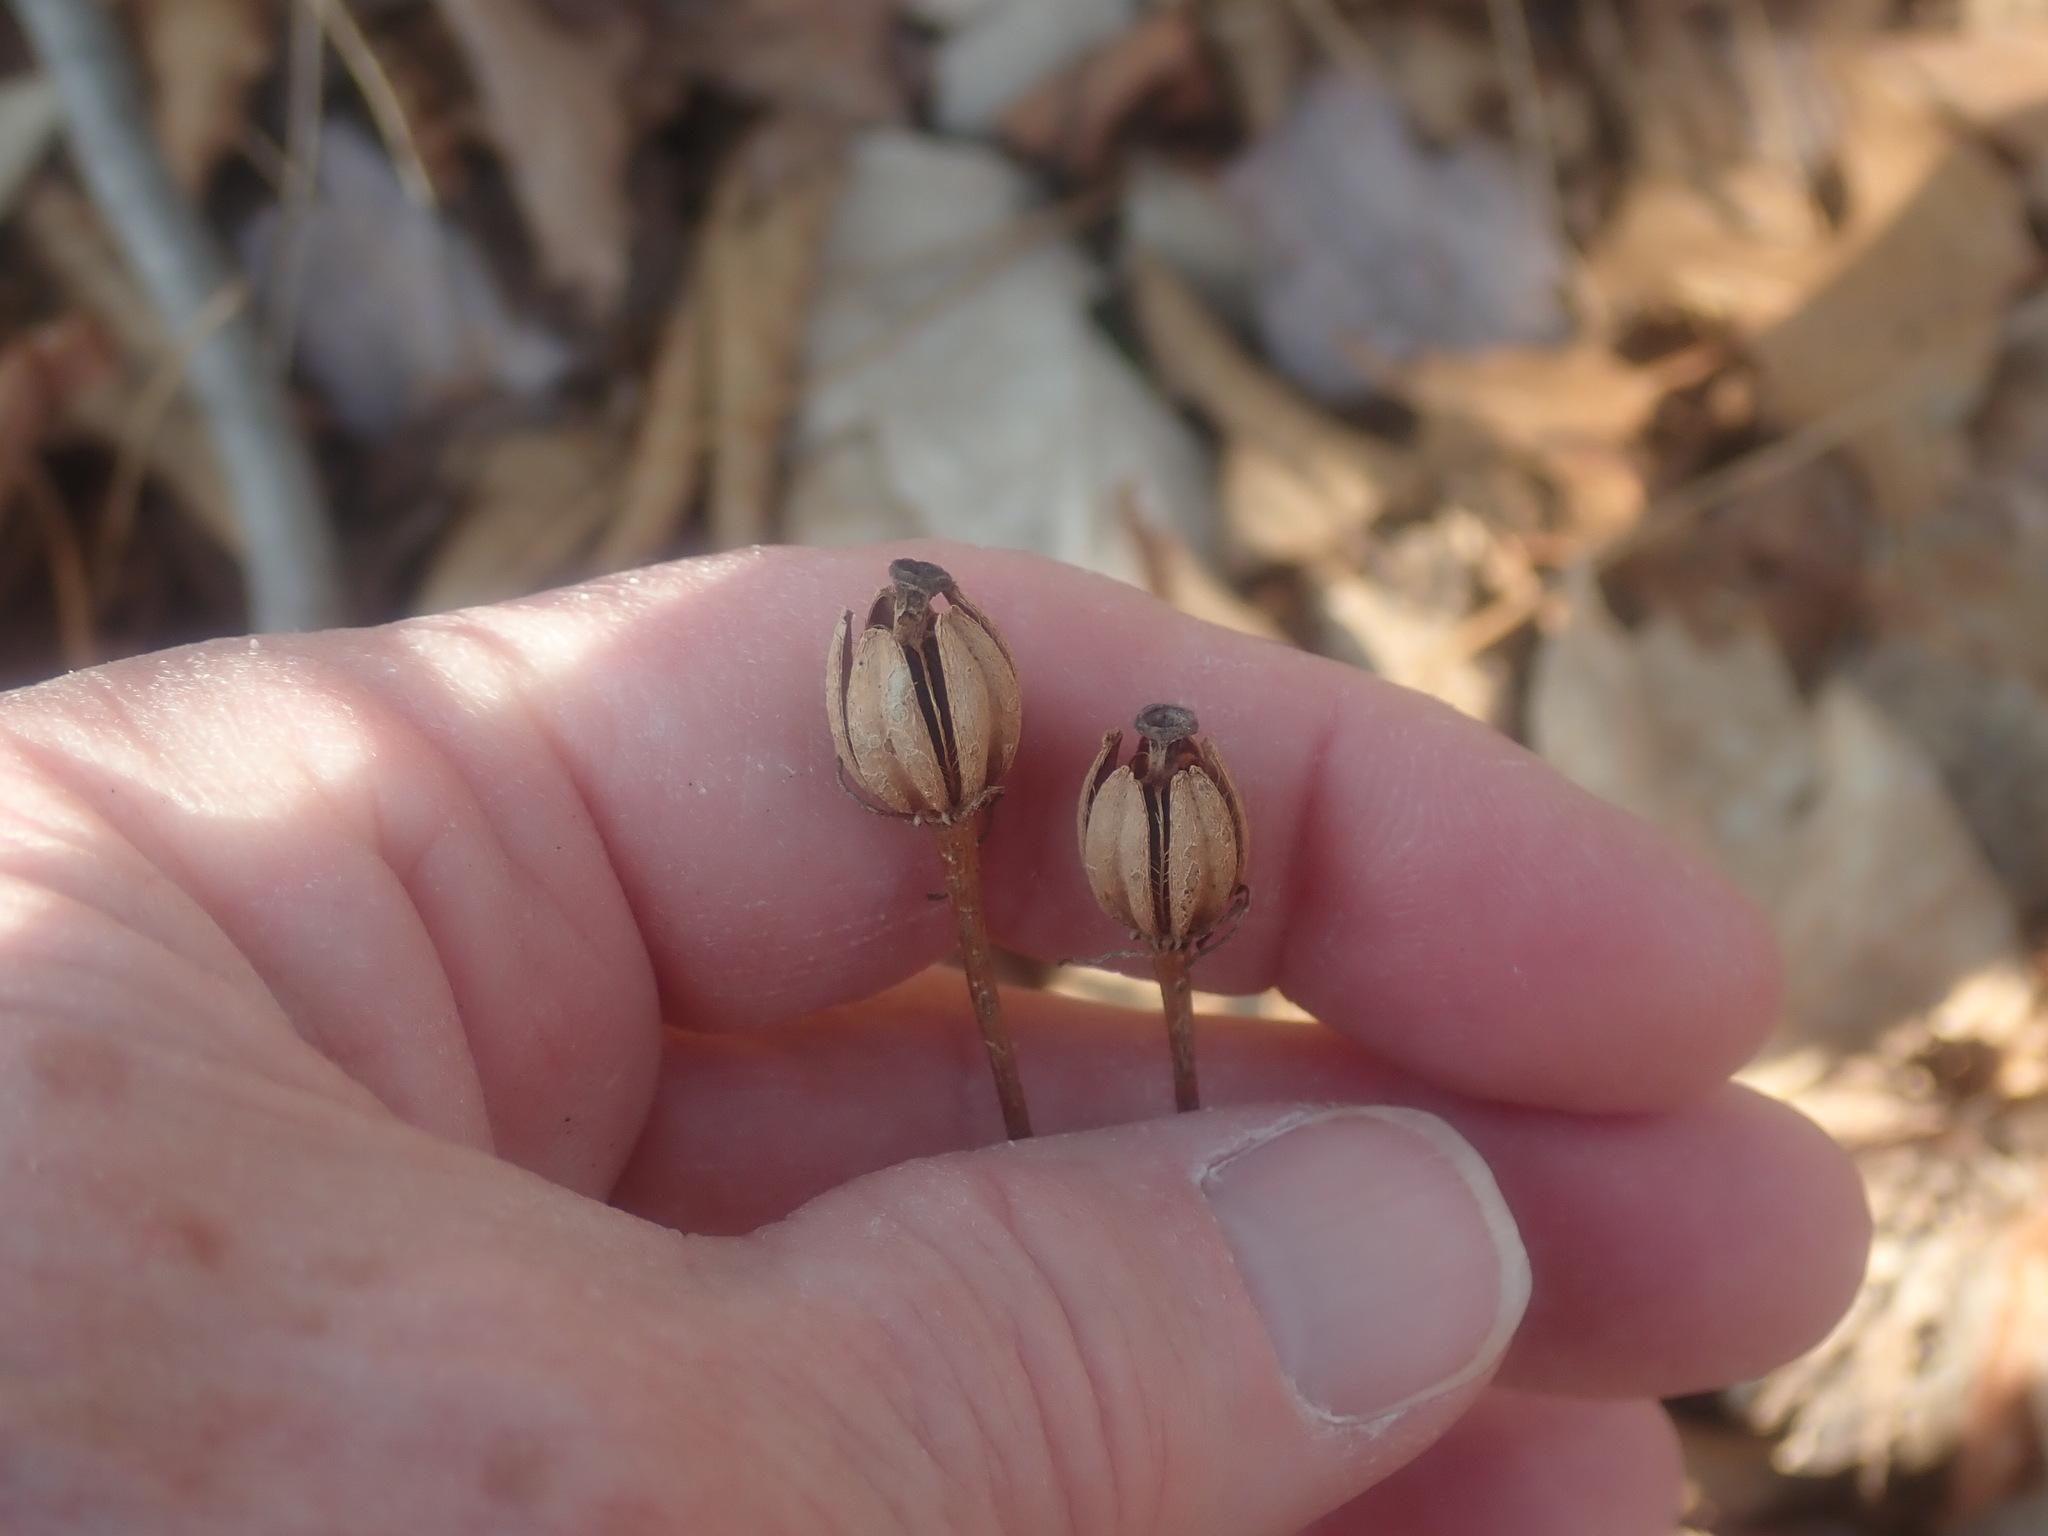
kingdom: Plantae
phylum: Tracheophyta
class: Magnoliopsida
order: Ericales
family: Ericaceae
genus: Monotropa
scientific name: Monotropa uniflora
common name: Convulsion root
